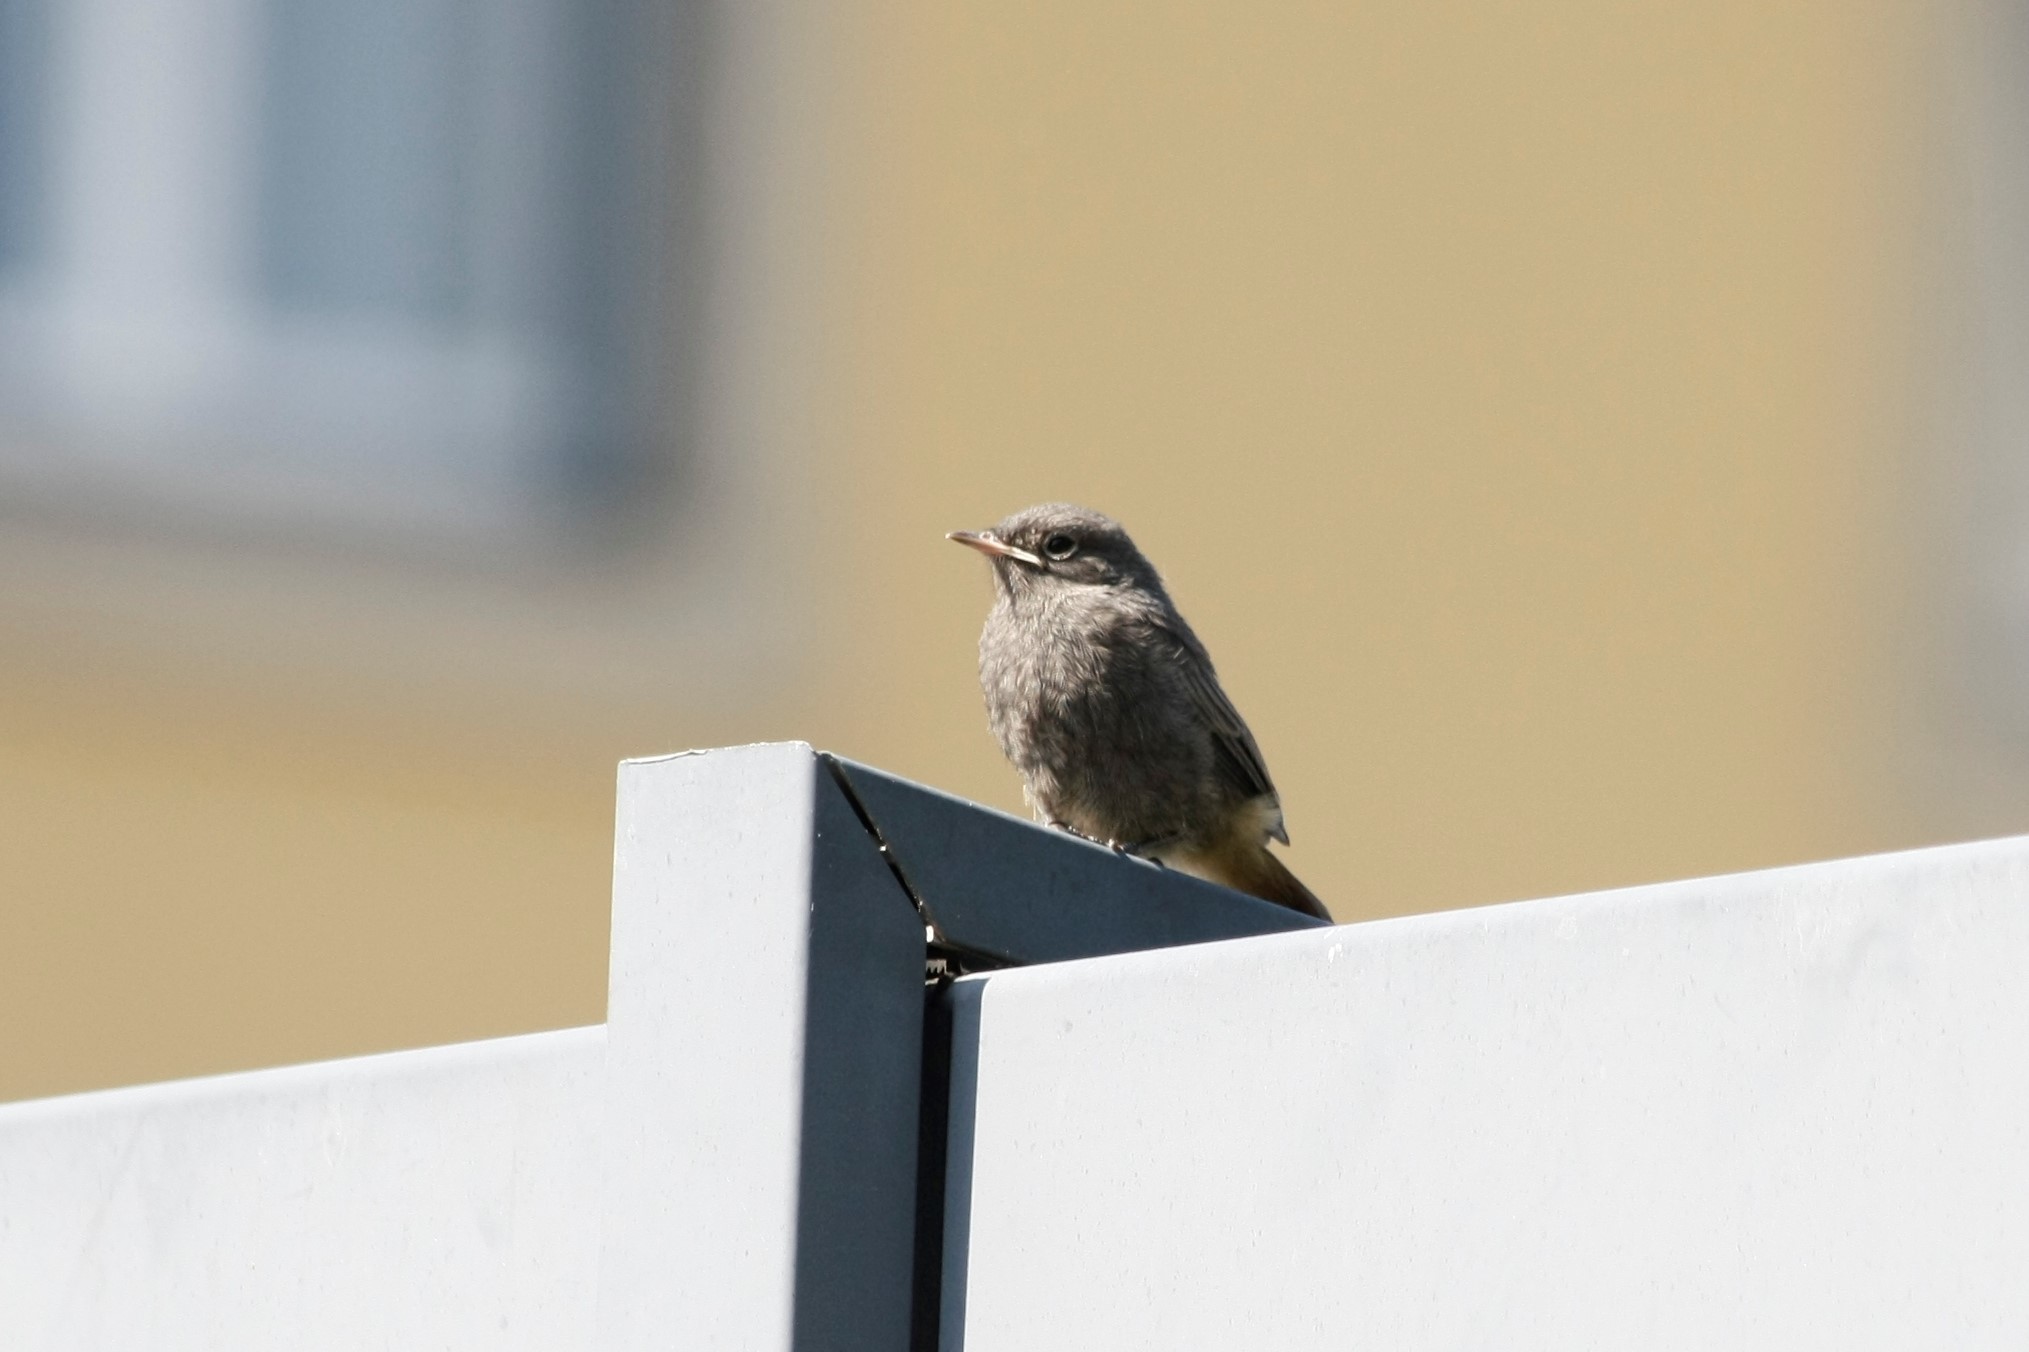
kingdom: Animalia
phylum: Chordata
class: Aves
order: Passeriformes
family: Muscicapidae
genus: Phoenicurus
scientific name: Phoenicurus ochruros
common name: Black redstart
